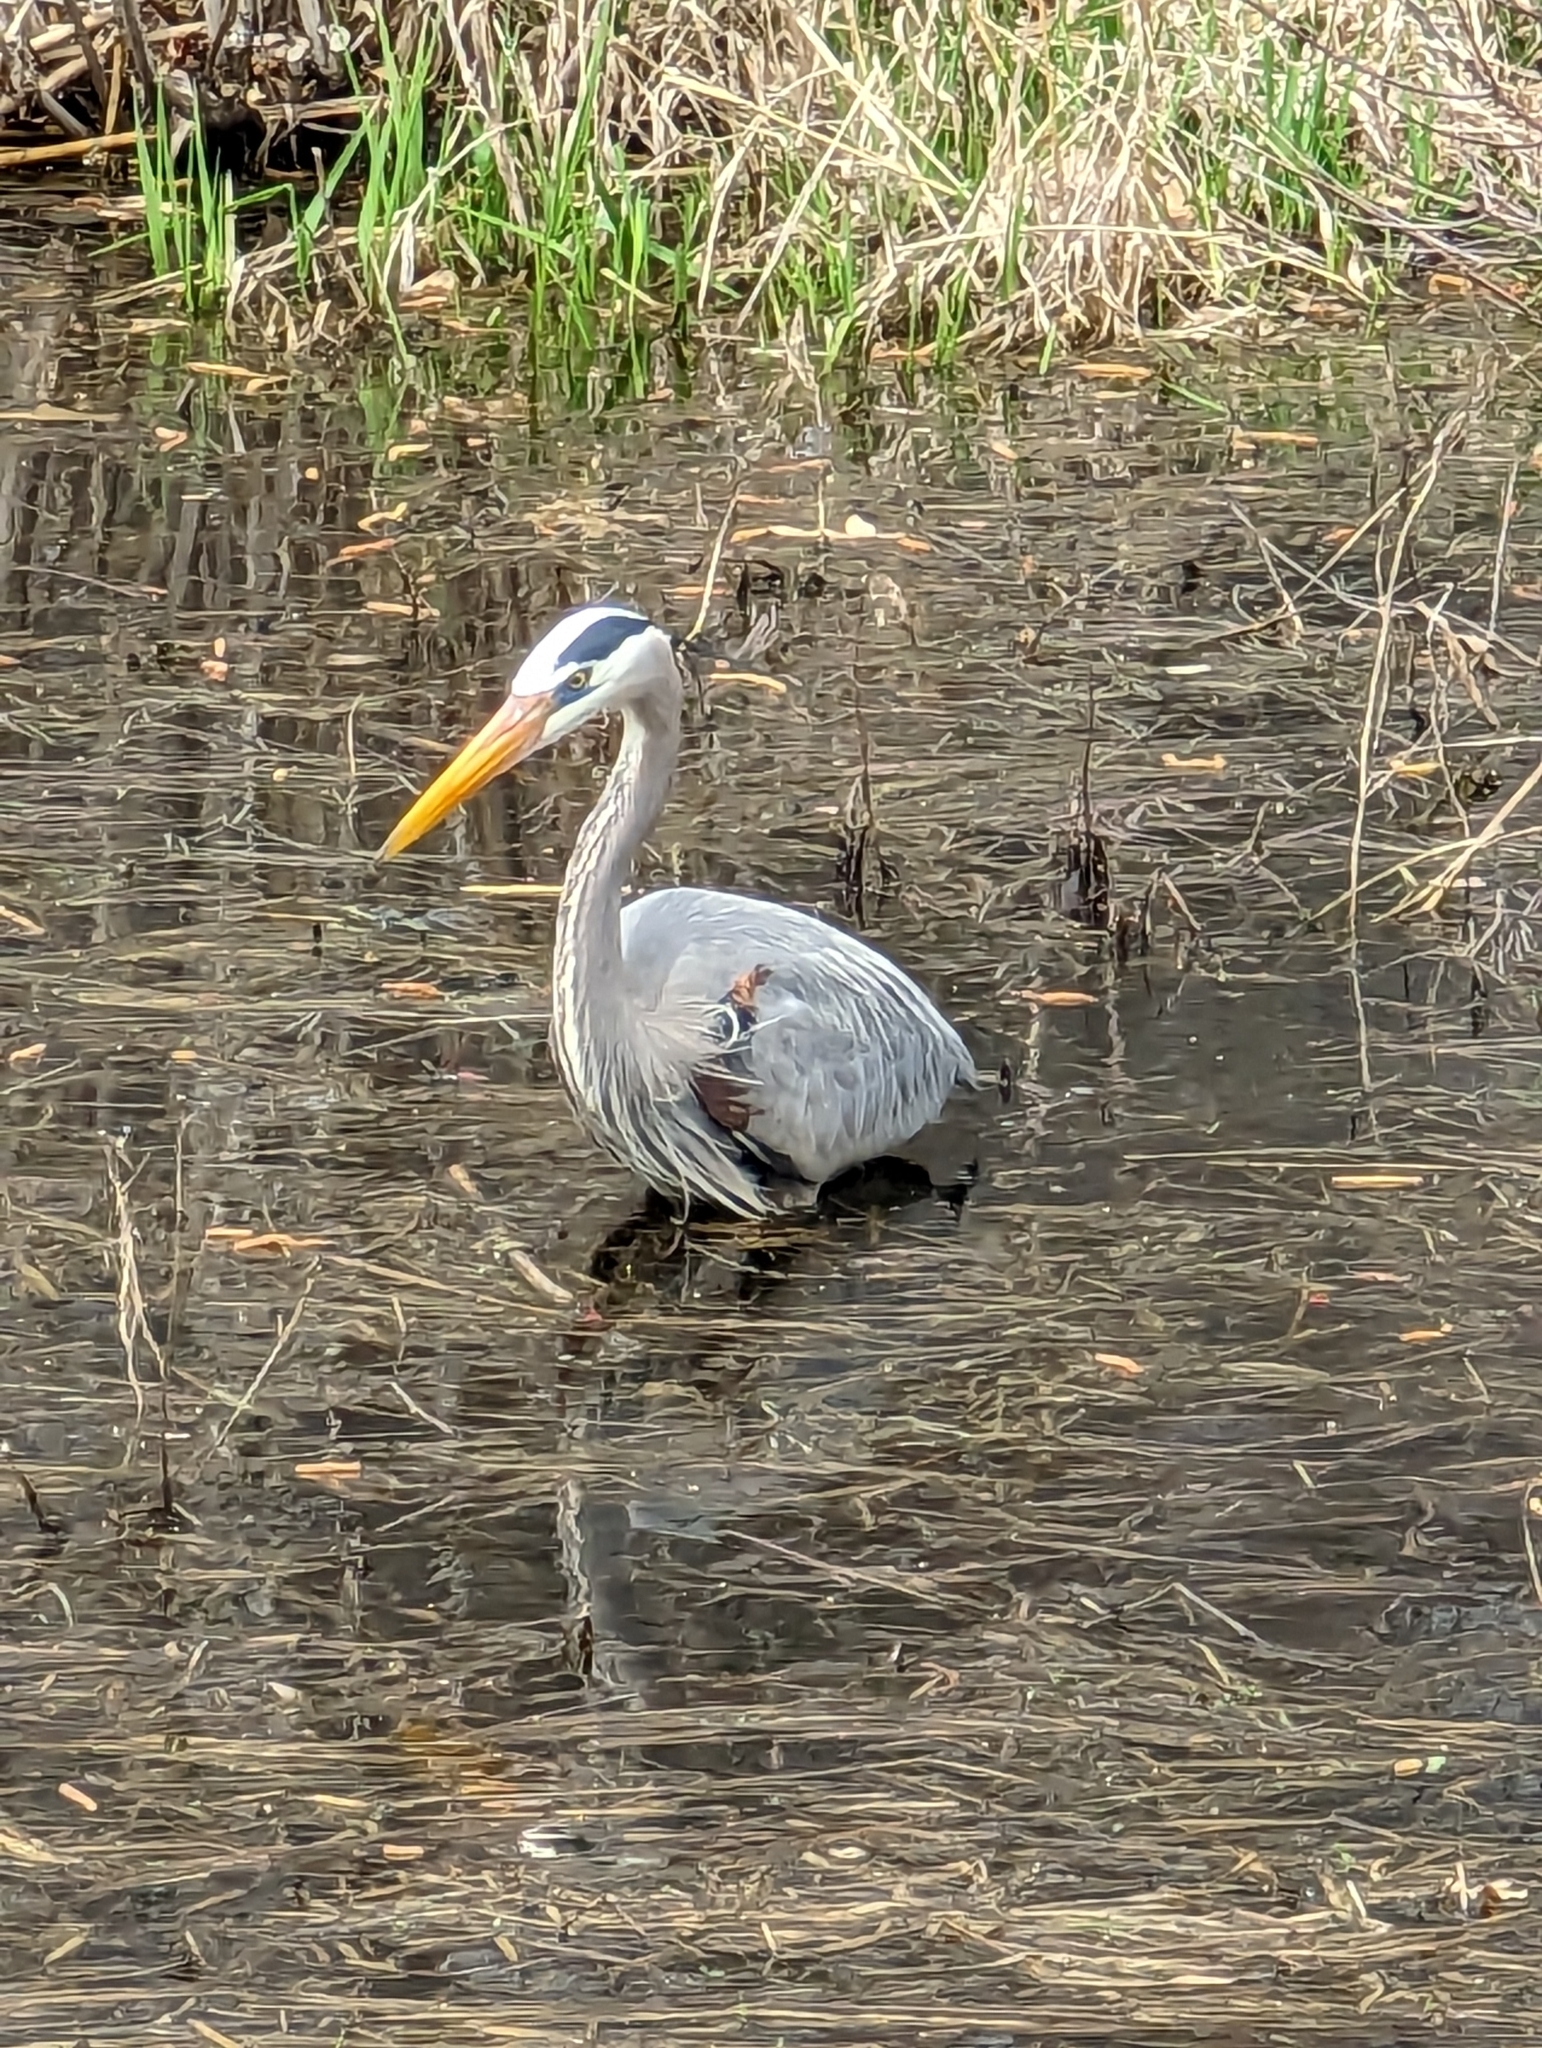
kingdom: Animalia
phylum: Chordata
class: Aves
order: Pelecaniformes
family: Ardeidae
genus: Ardea
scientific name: Ardea herodias
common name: Great blue heron
